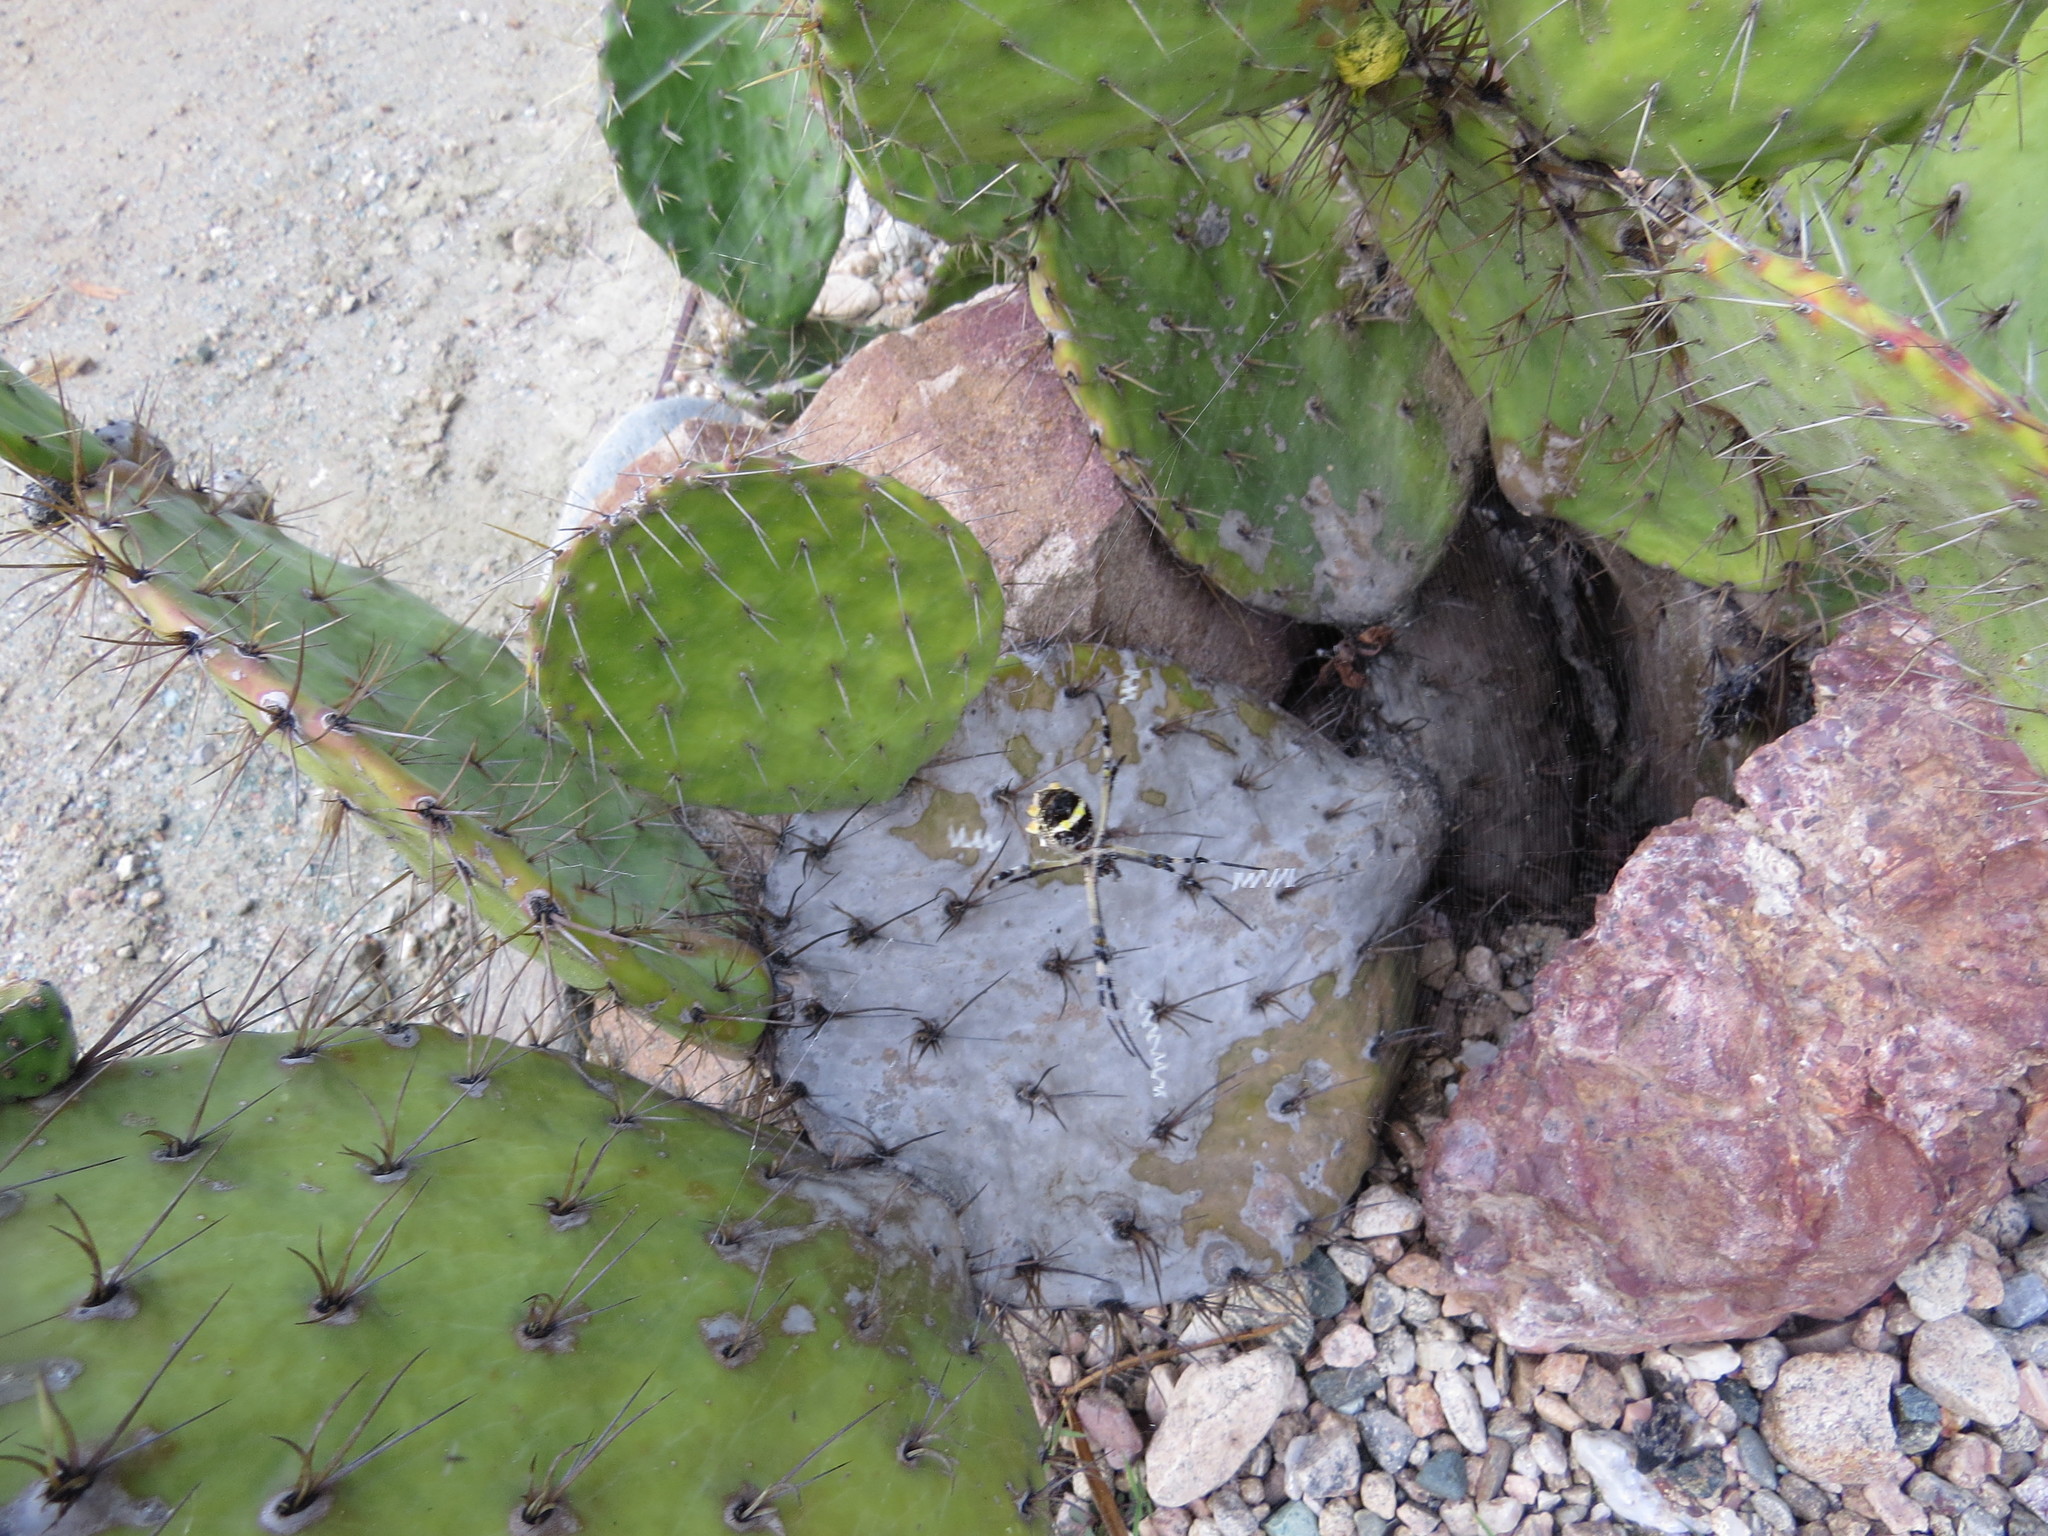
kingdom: Animalia
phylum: Arthropoda
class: Arachnida
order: Araneae
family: Araneidae
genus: Argiope
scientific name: Argiope argentata
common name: Orb weavers
